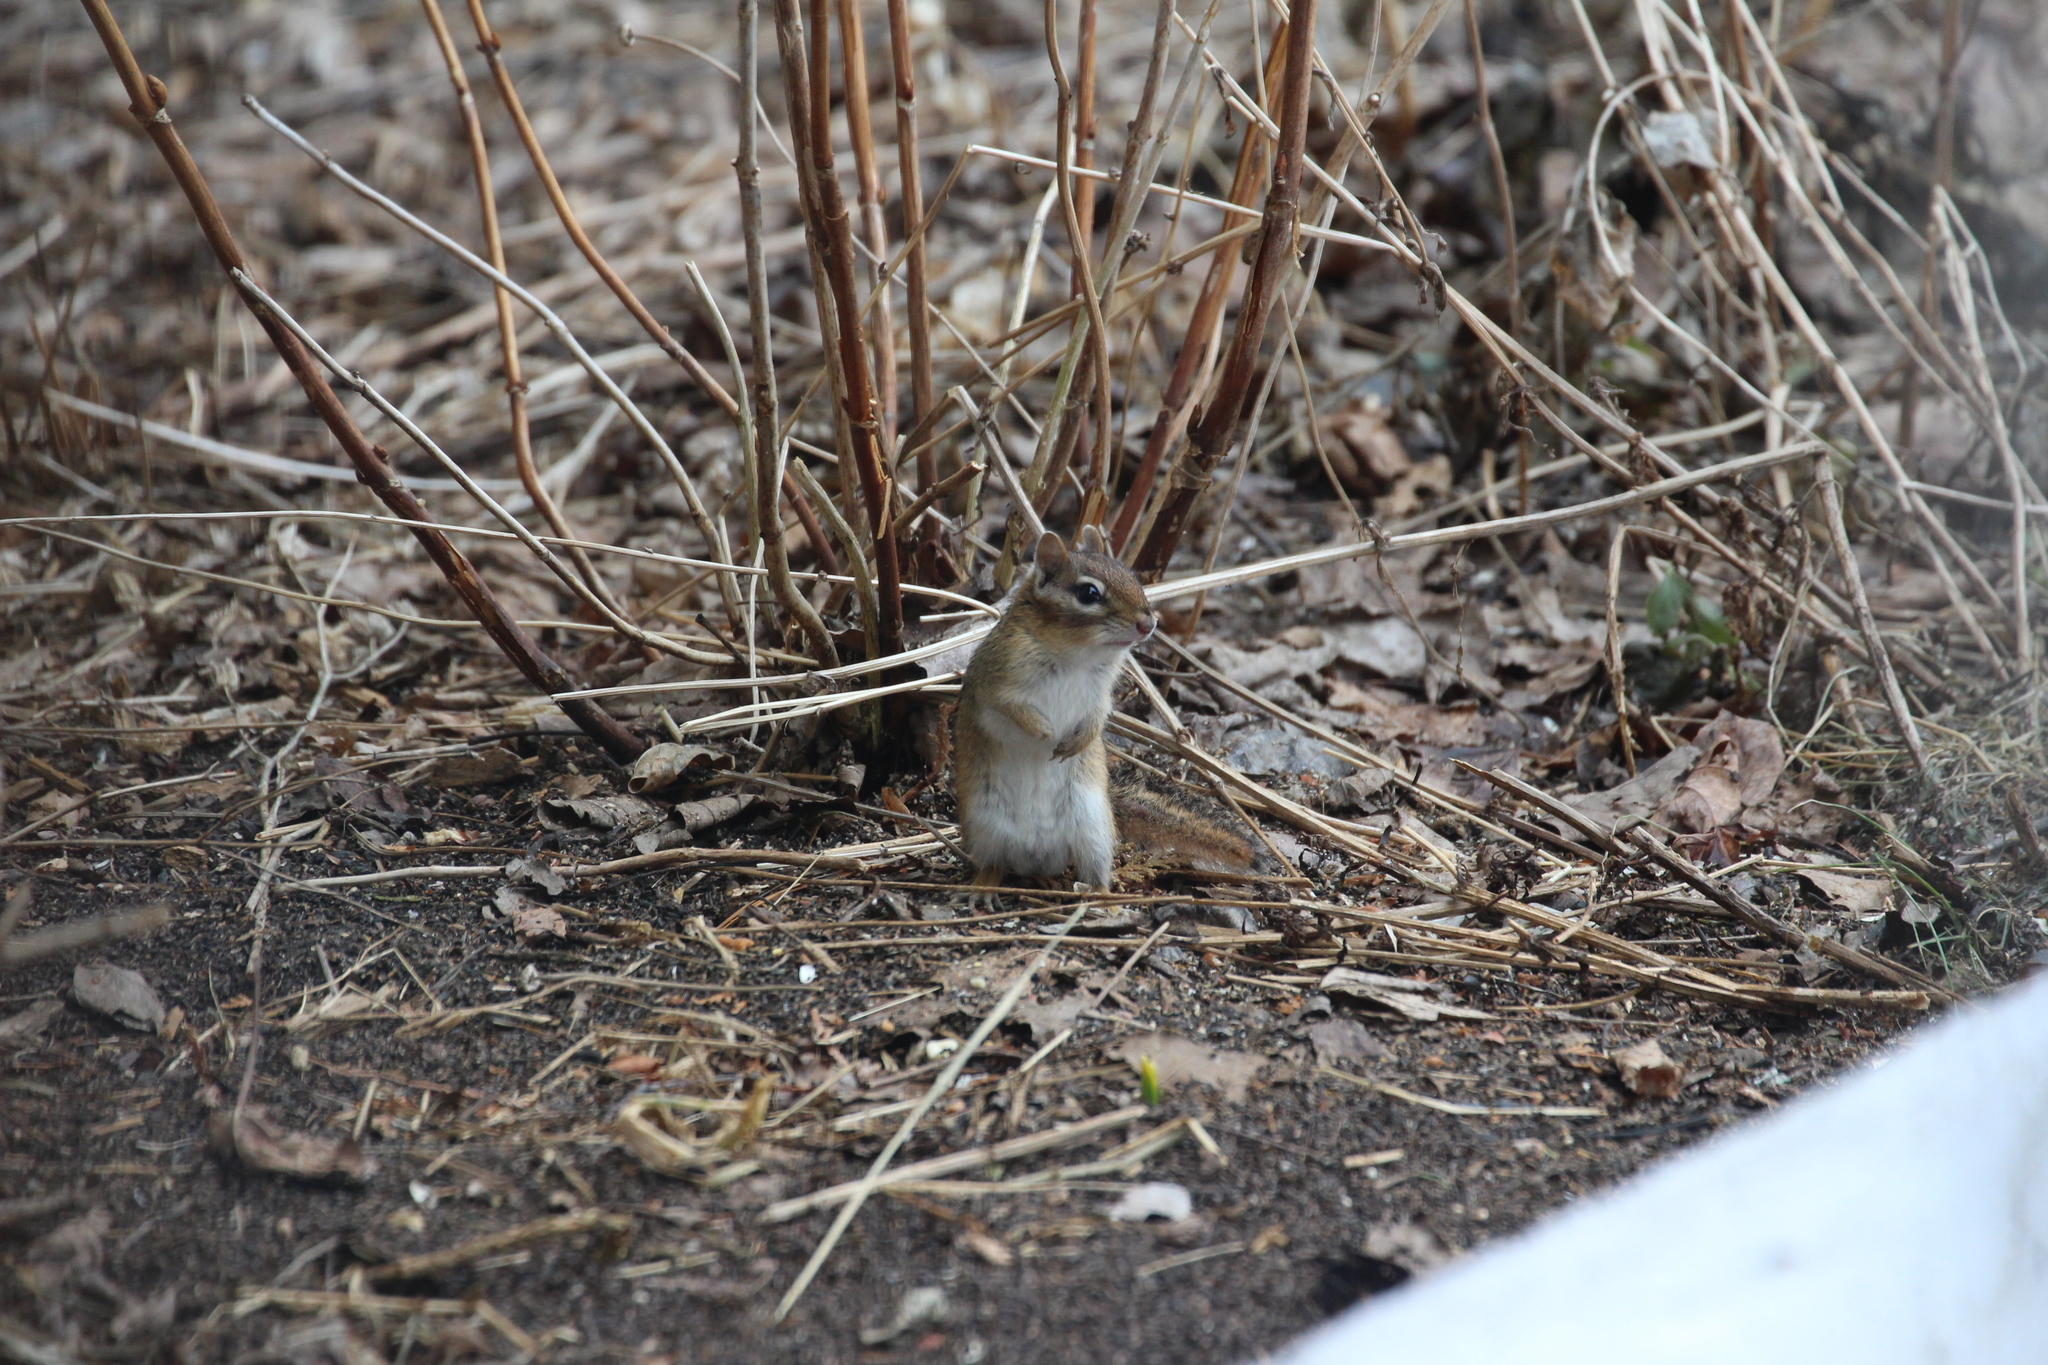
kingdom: Animalia
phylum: Chordata
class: Mammalia
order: Rodentia
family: Sciuridae
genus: Tamias
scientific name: Tamias striatus
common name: Eastern chipmunk
